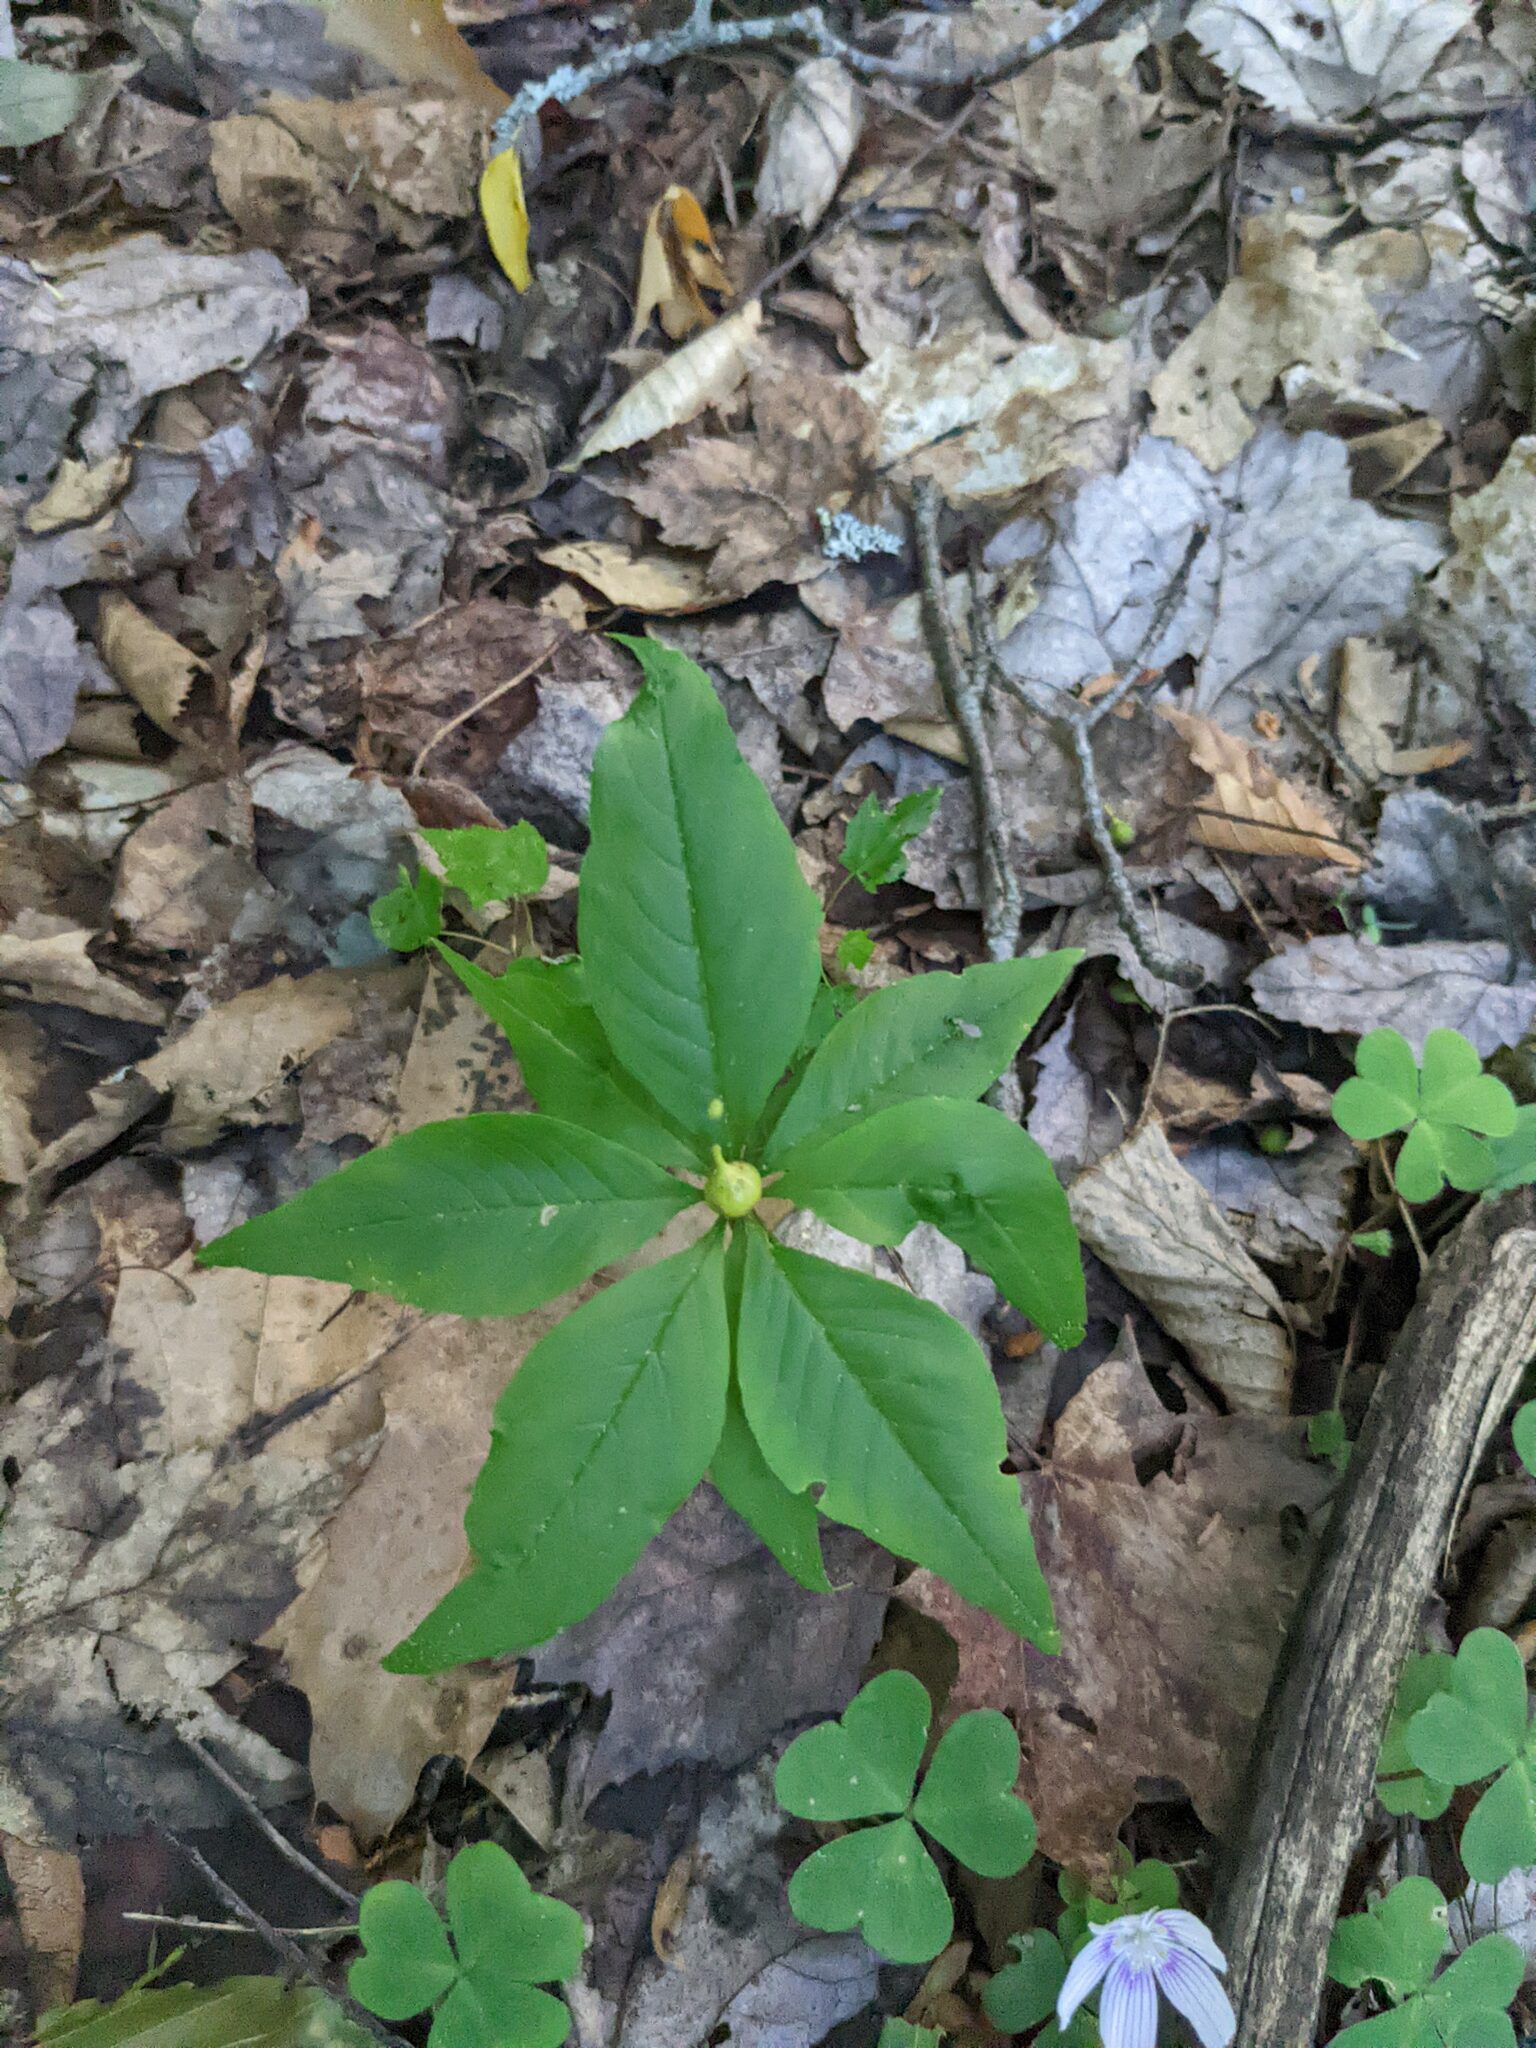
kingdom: Plantae
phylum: Tracheophyta
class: Magnoliopsida
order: Ericales
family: Primulaceae
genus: Lysimachia
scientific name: Lysimachia borealis
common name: American starflower
